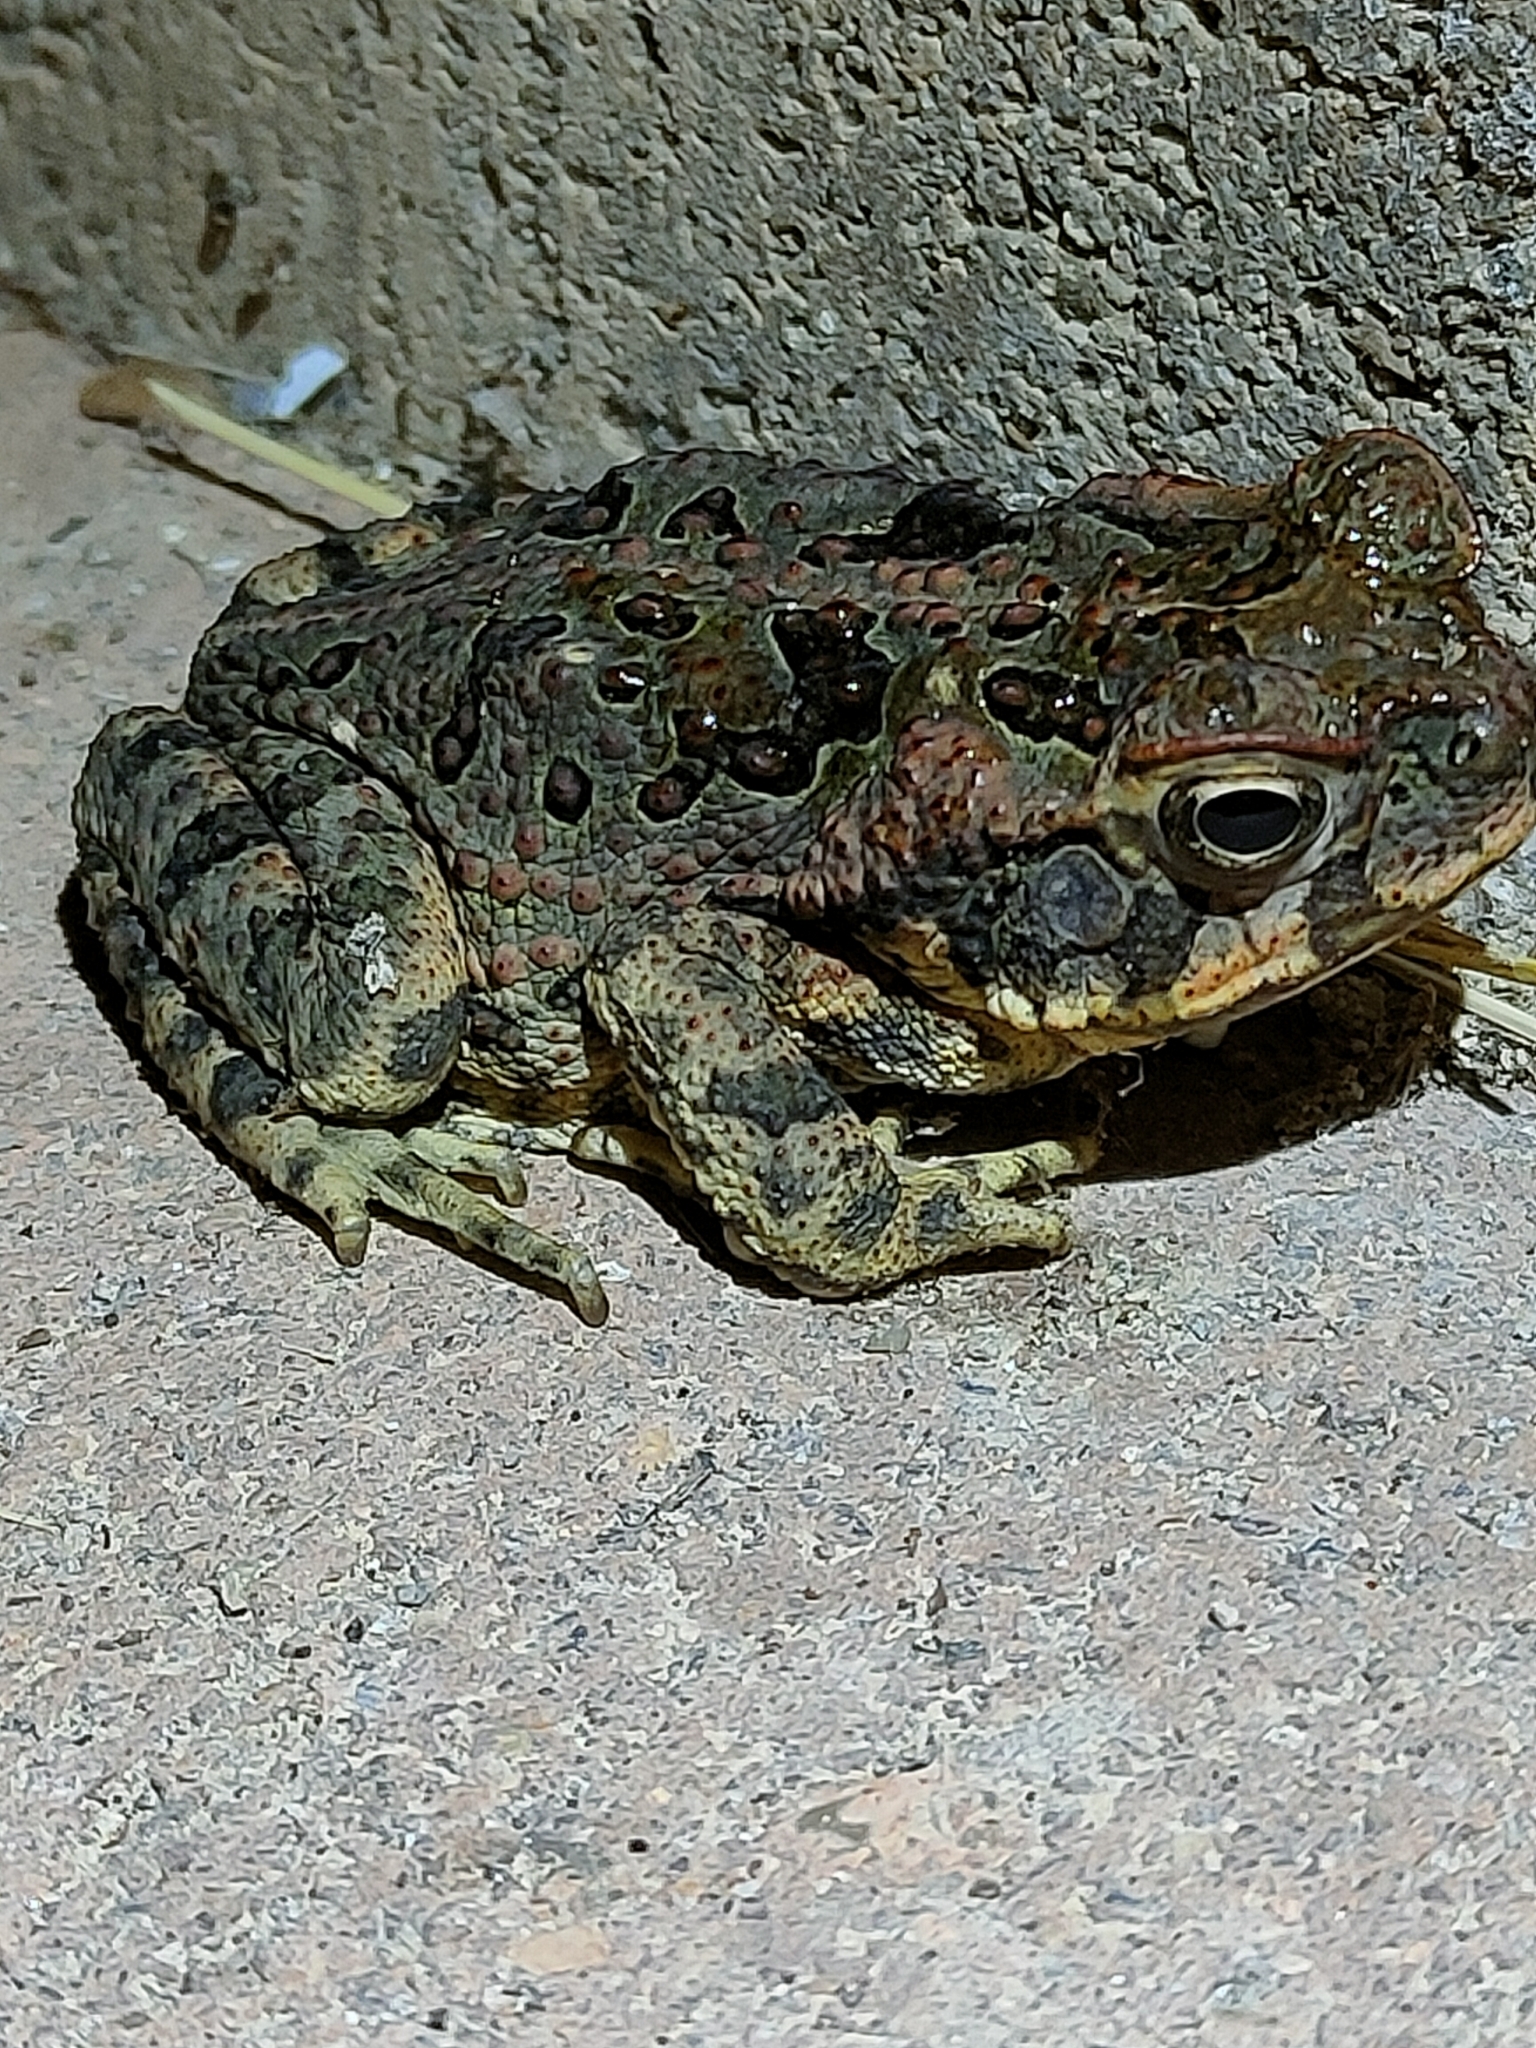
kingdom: Animalia
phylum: Chordata
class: Amphibia
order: Anura
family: Bufonidae
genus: Rhinella
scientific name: Rhinella marina
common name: Cane toad
